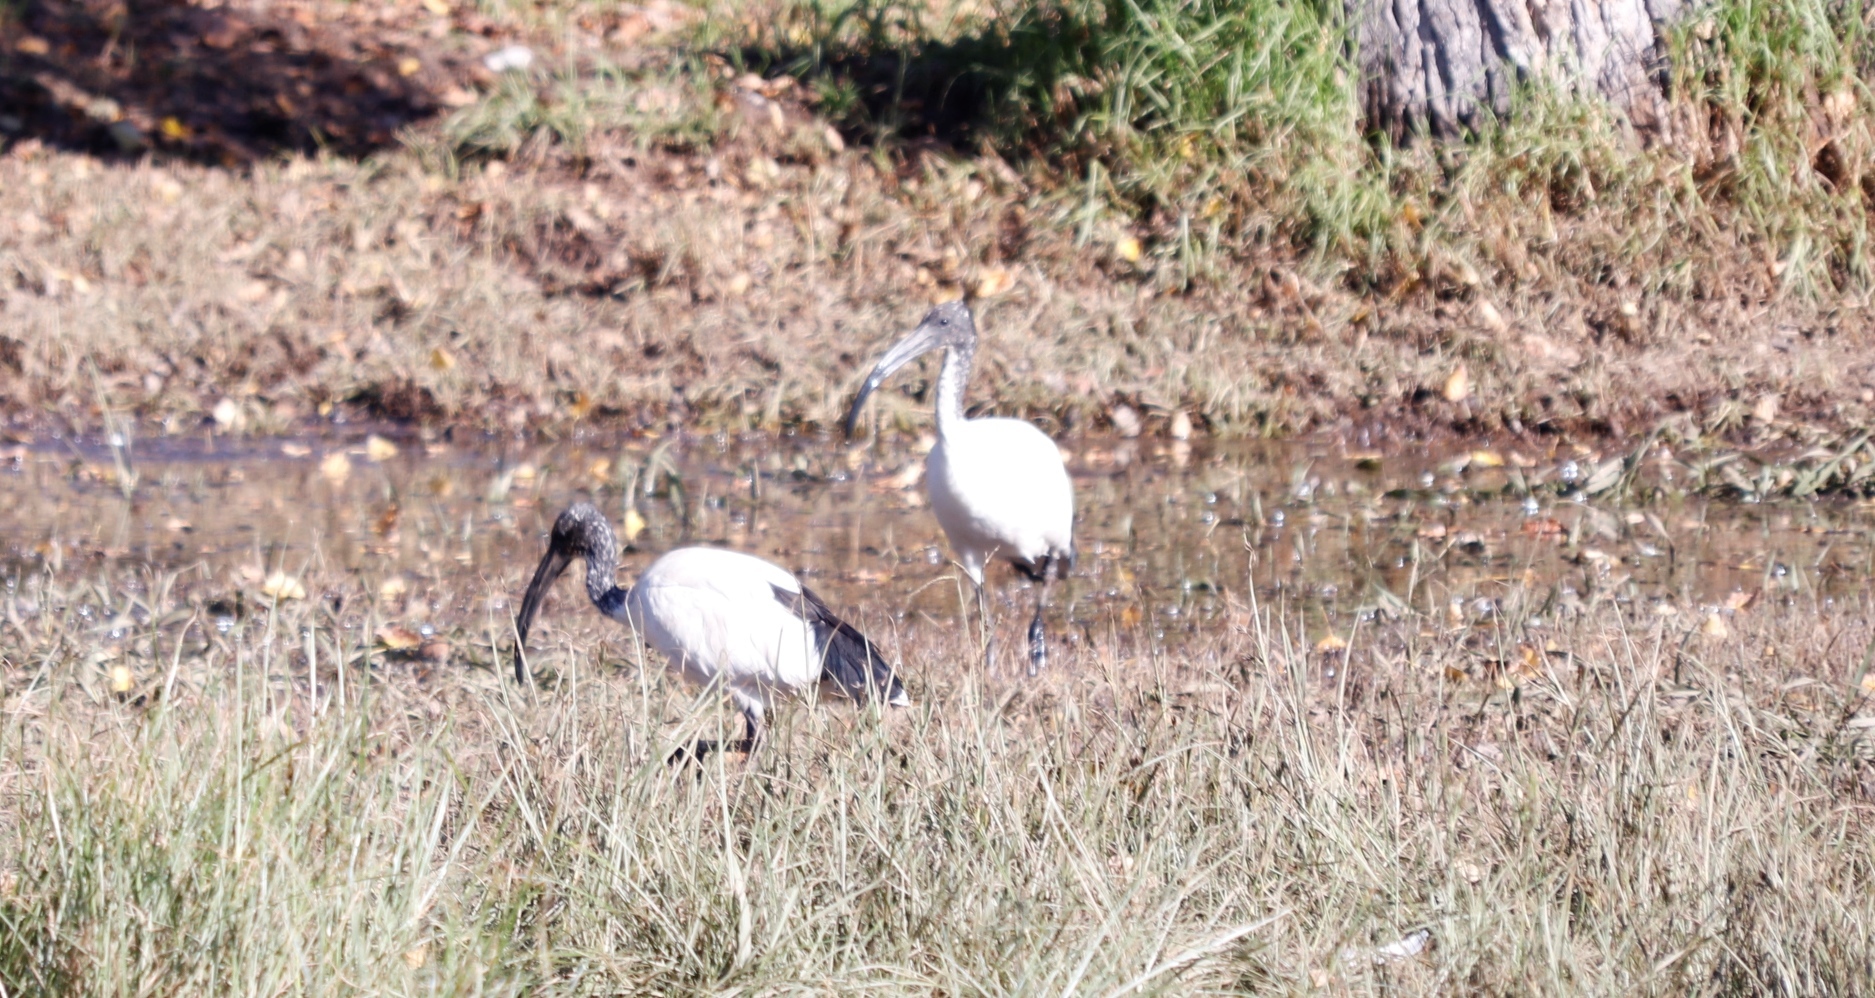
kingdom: Animalia
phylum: Chordata
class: Aves
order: Pelecaniformes
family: Threskiornithidae
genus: Threskiornis
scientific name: Threskiornis aethiopicus
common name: Sacred ibis
